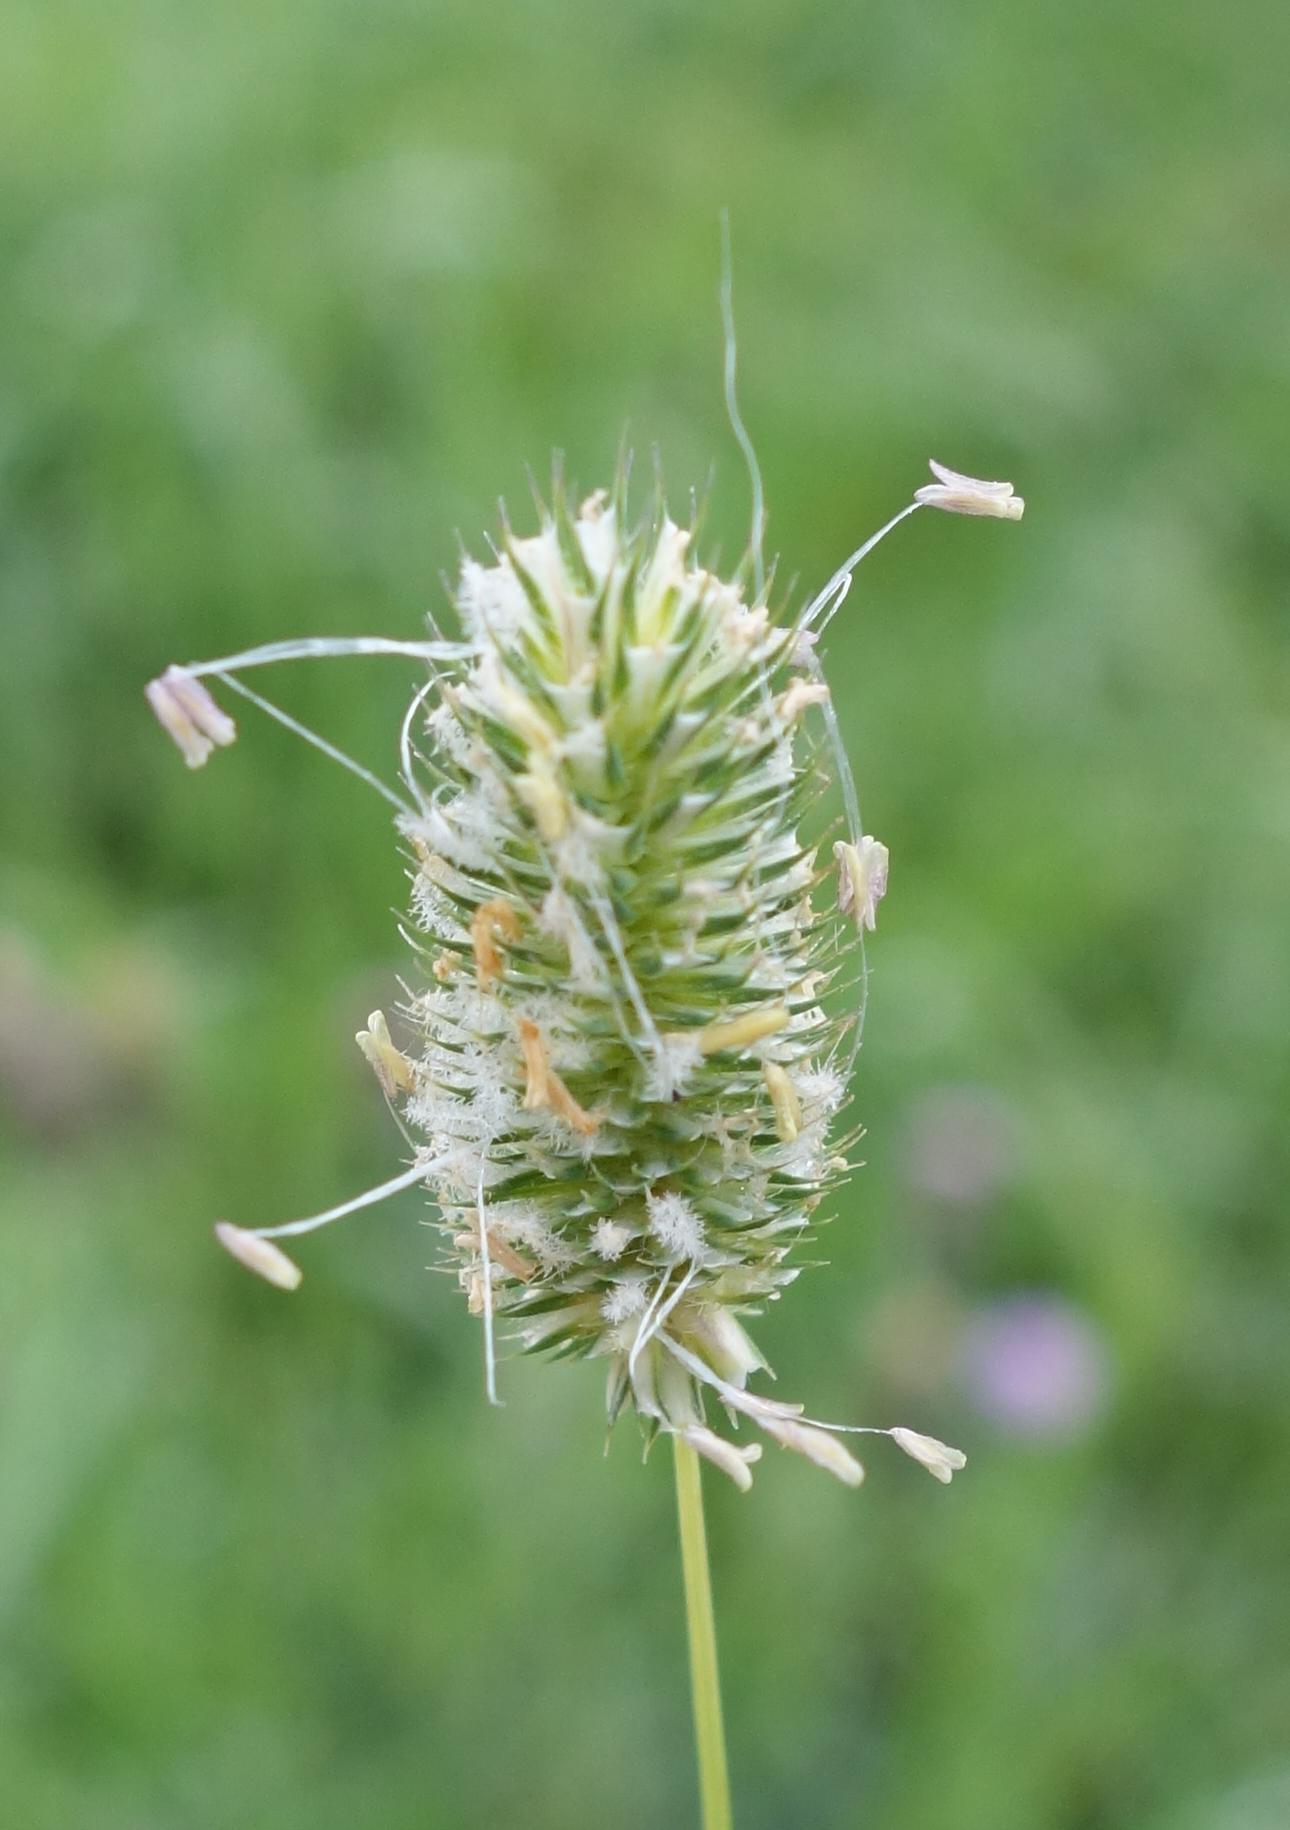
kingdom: Plantae
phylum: Tracheophyta
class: Liliopsida
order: Poales
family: Poaceae
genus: Phleum
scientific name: Phleum pratense
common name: Timothy grass
